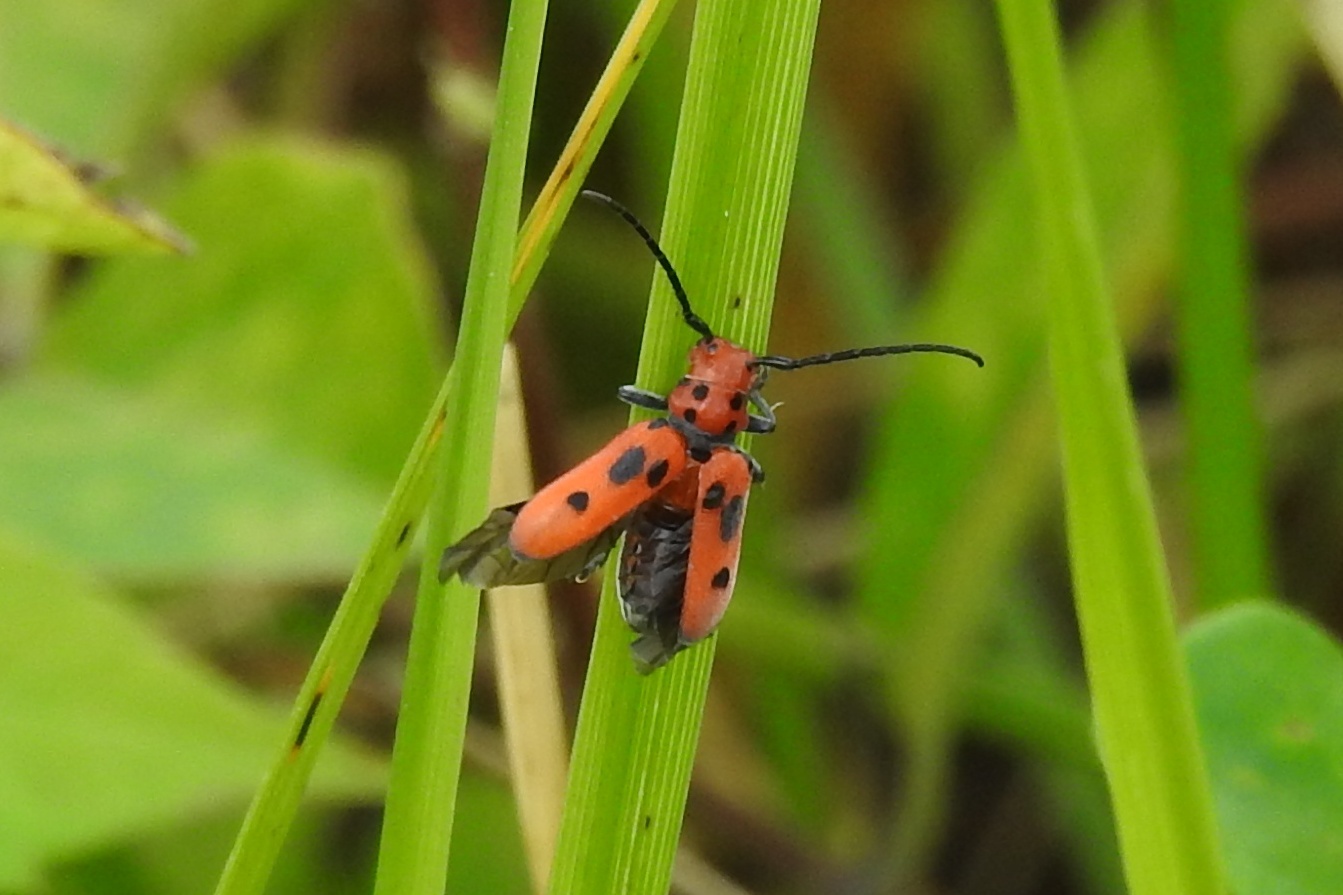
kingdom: Animalia
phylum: Arthropoda
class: Insecta
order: Coleoptera
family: Cerambycidae
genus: Tetraopes
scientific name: Tetraopes tetrophthalmus
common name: Red milkweed beetle
